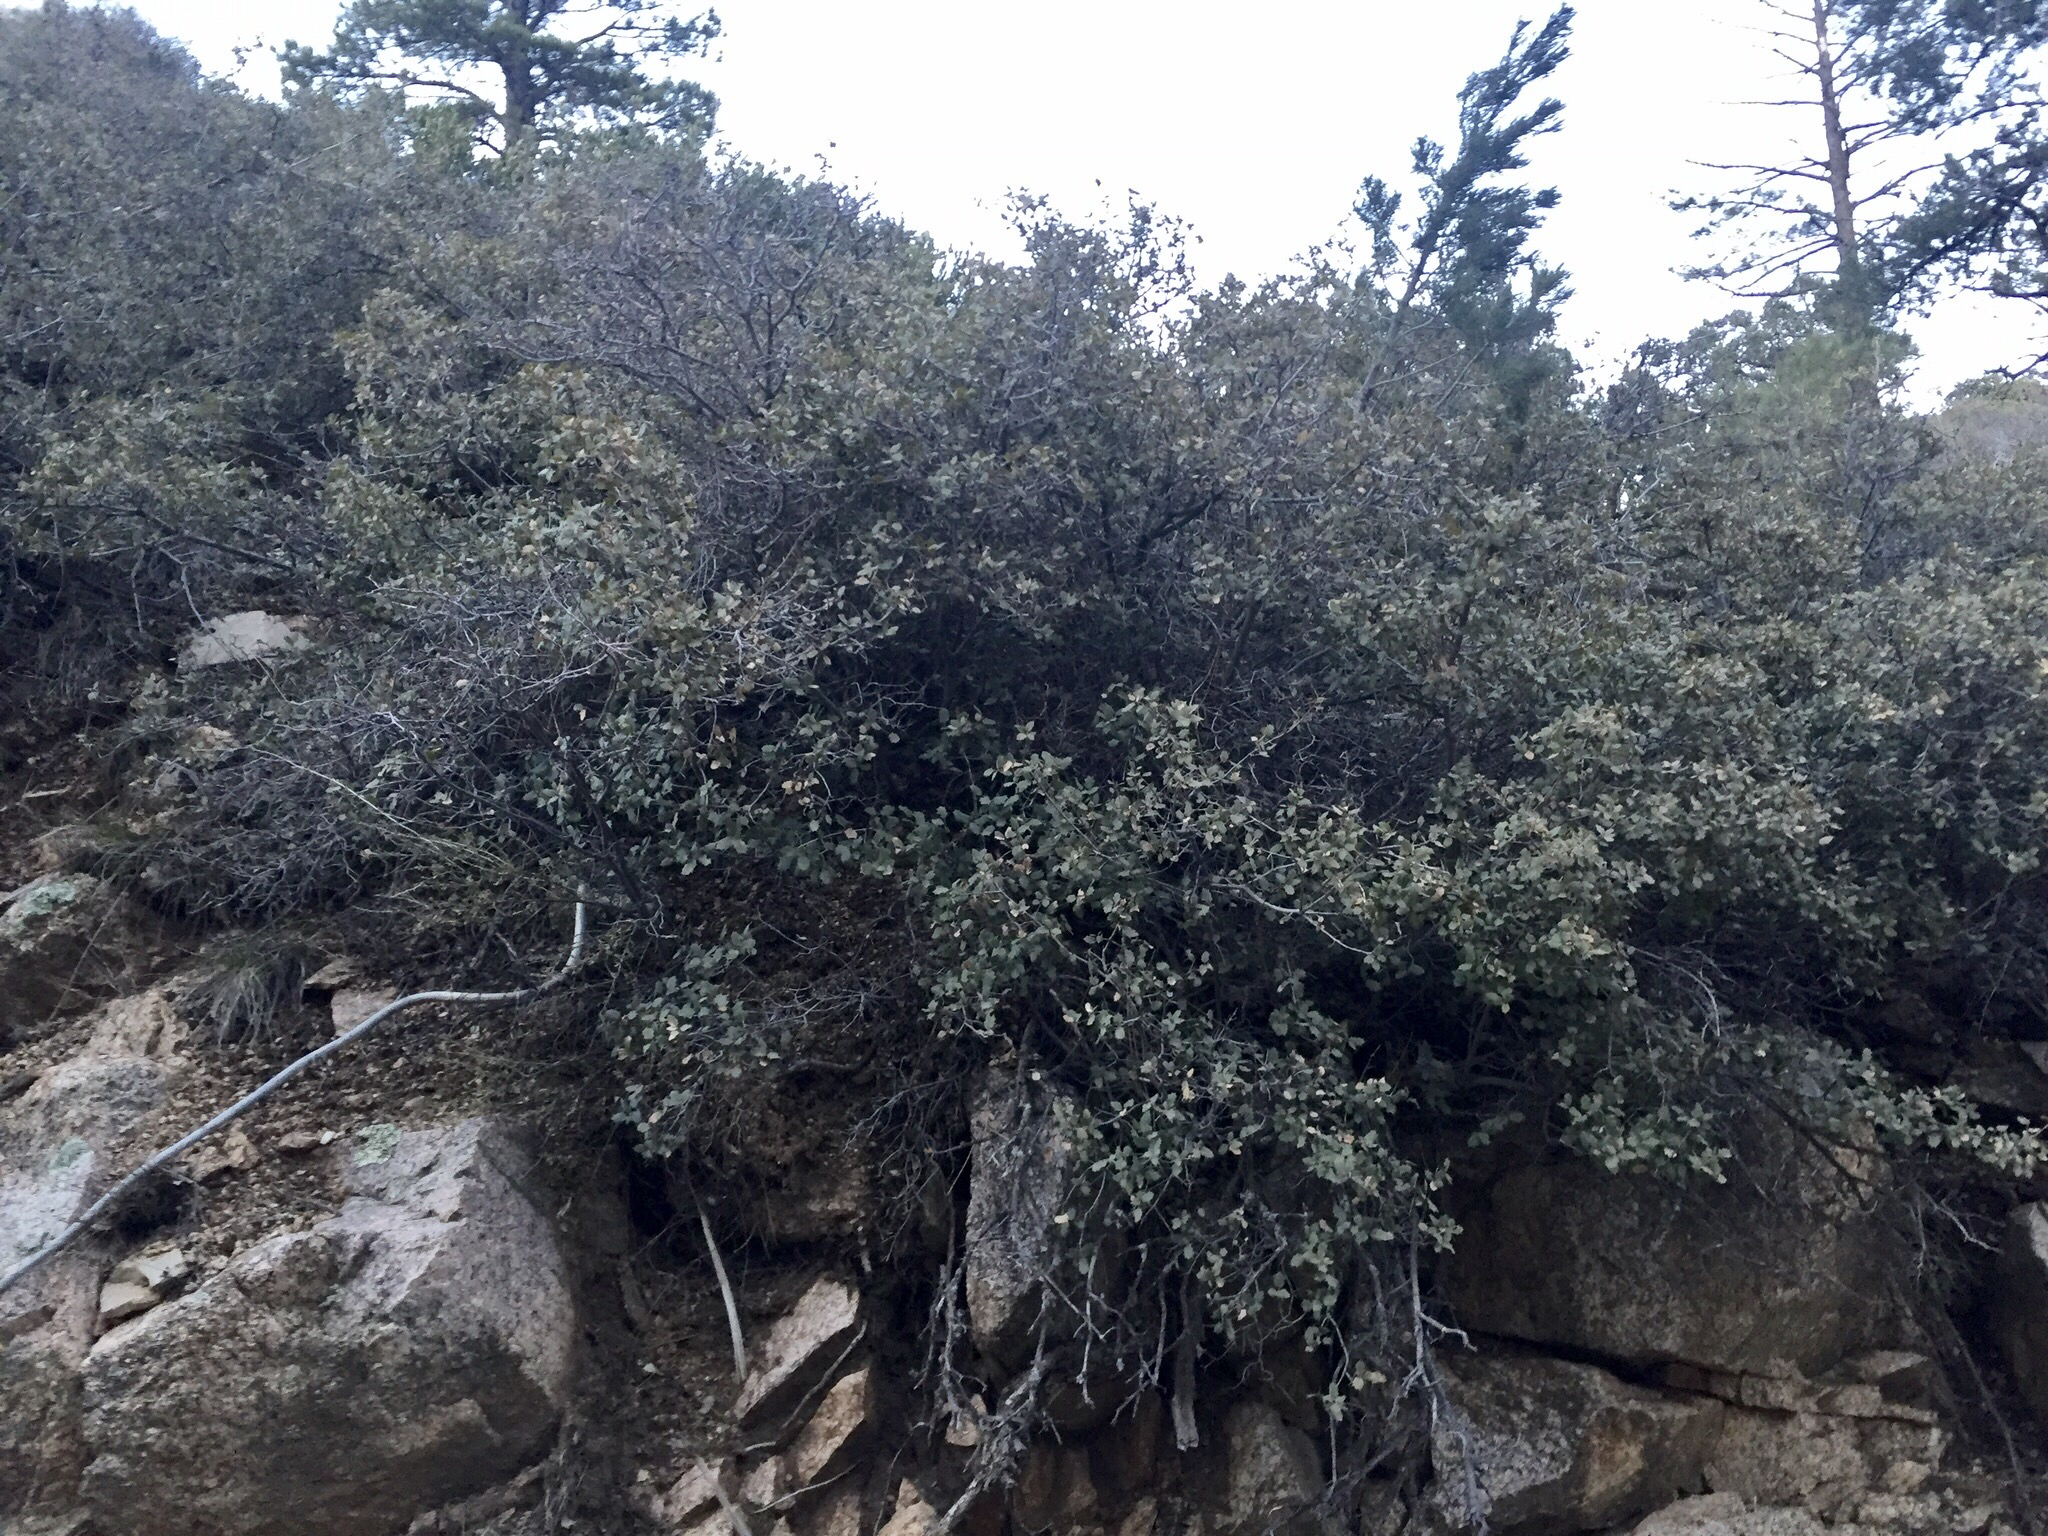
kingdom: Plantae
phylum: Tracheophyta
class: Magnoliopsida
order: Fagales
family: Fagaceae
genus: Quercus
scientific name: Quercus turbinella
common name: Sonoran scrub oak
